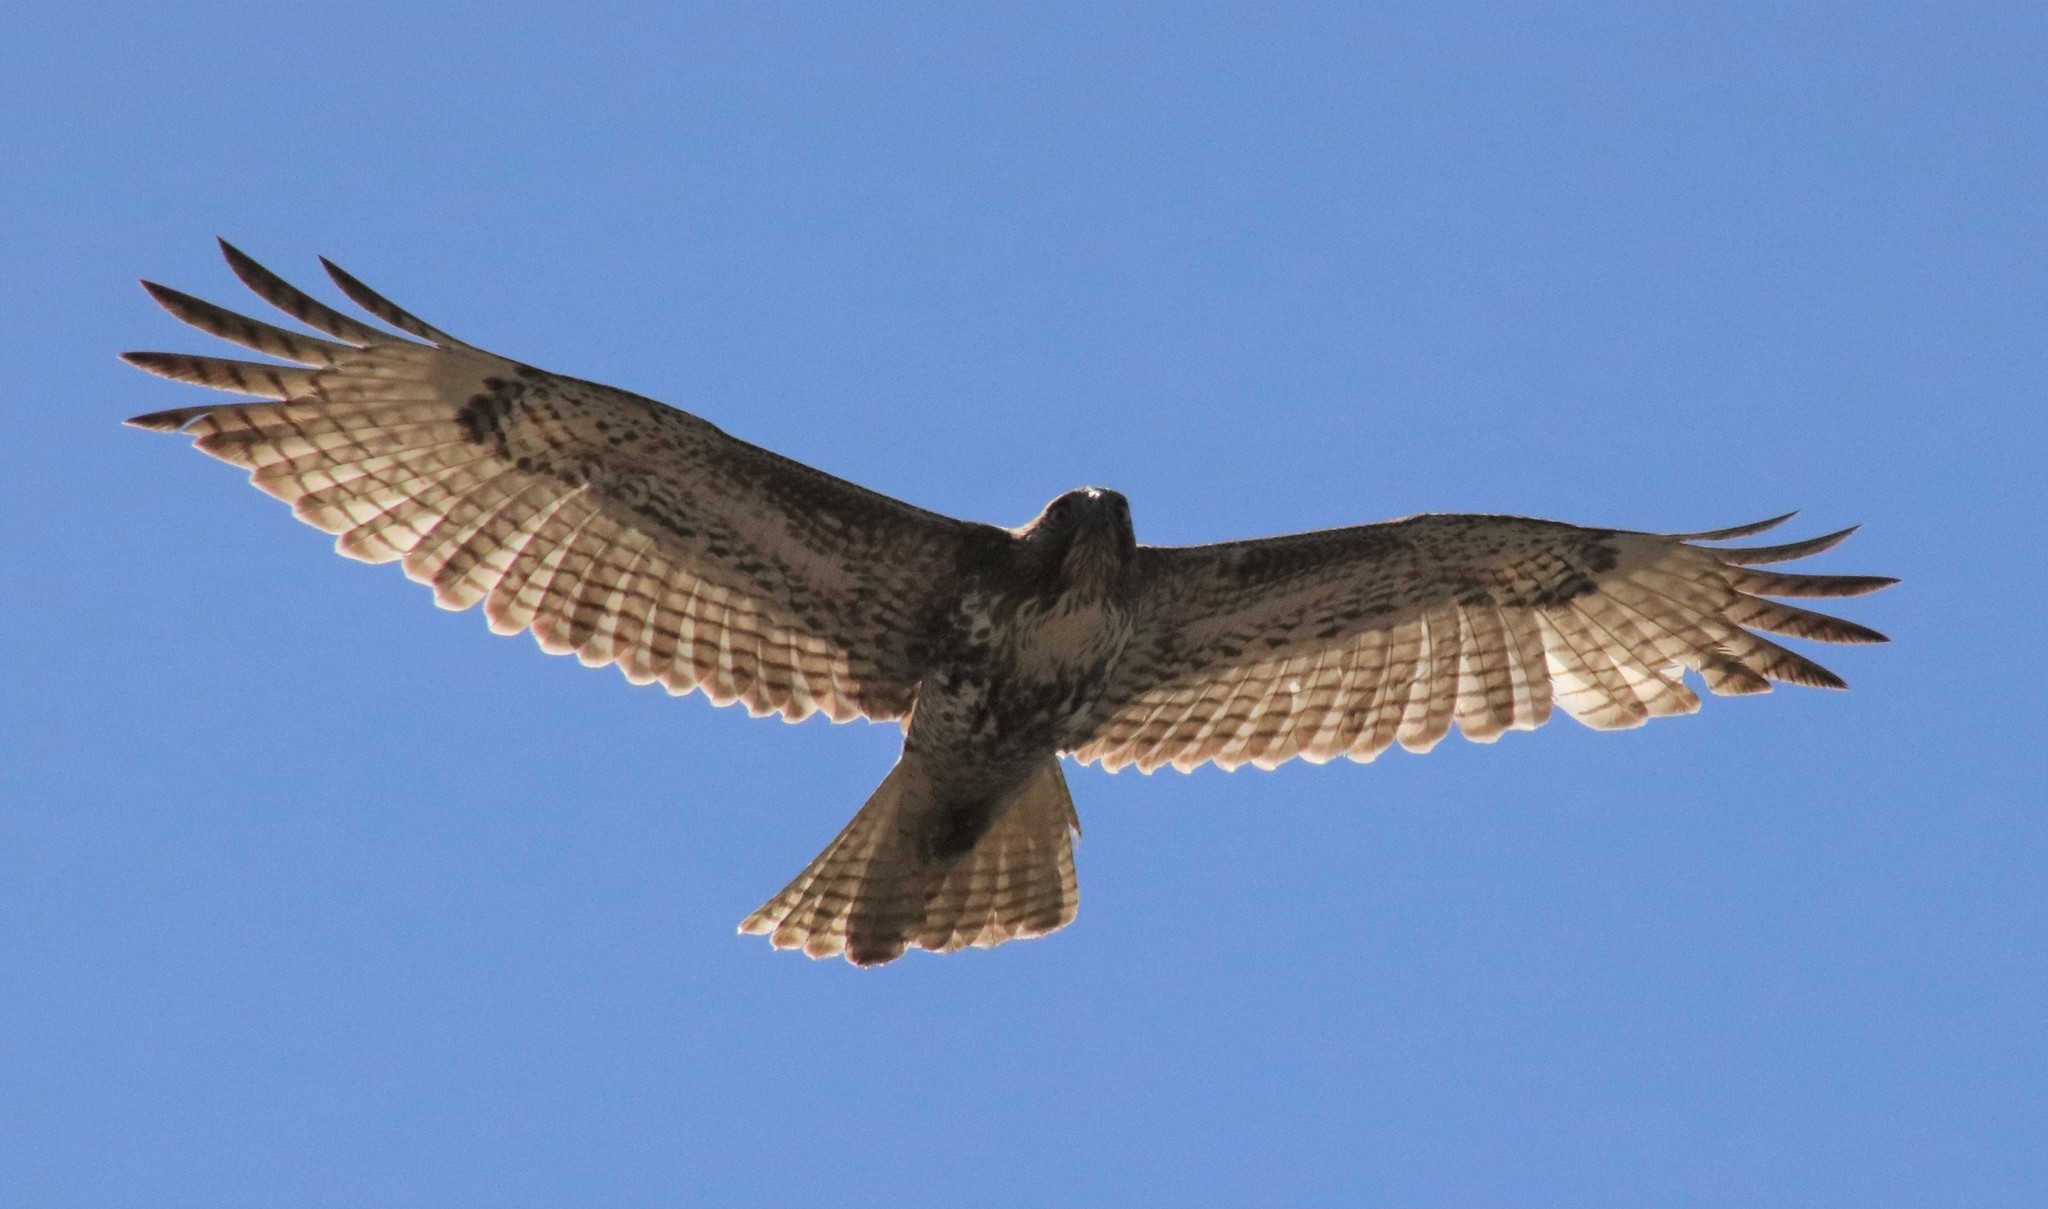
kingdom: Animalia
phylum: Chordata
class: Aves
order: Accipitriformes
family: Accipitridae
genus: Buteo
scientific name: Buteo jamaicensis
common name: Red-tailed hawk
